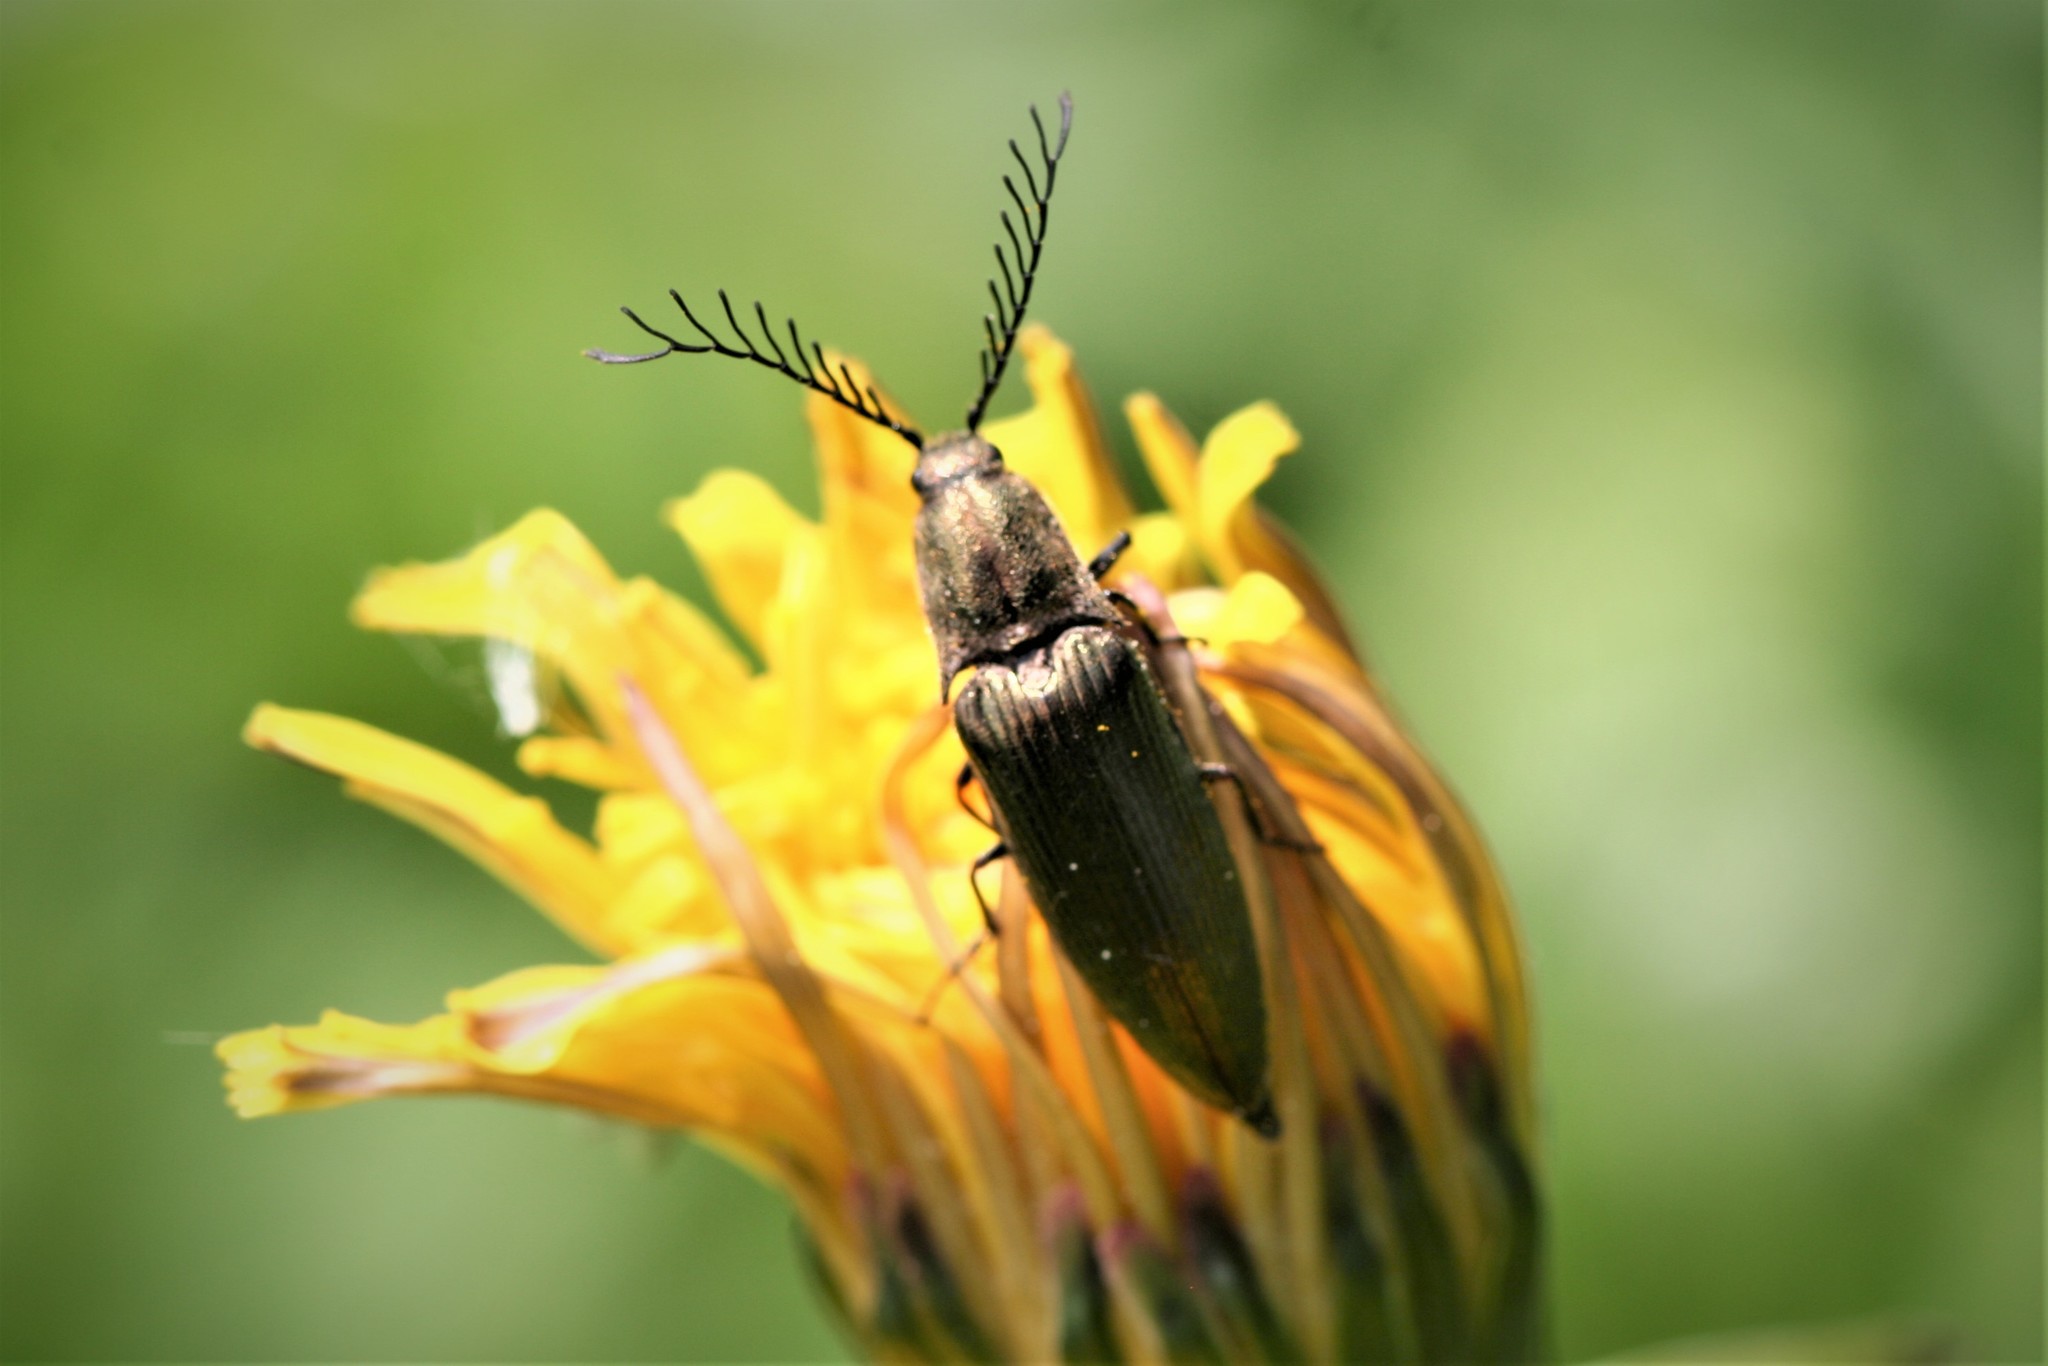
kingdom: Animalia
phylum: Arthropoda
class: Insecta
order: Coleoptera
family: Elateridae
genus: Ctenicera
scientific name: Ctenicera pectinicornis
